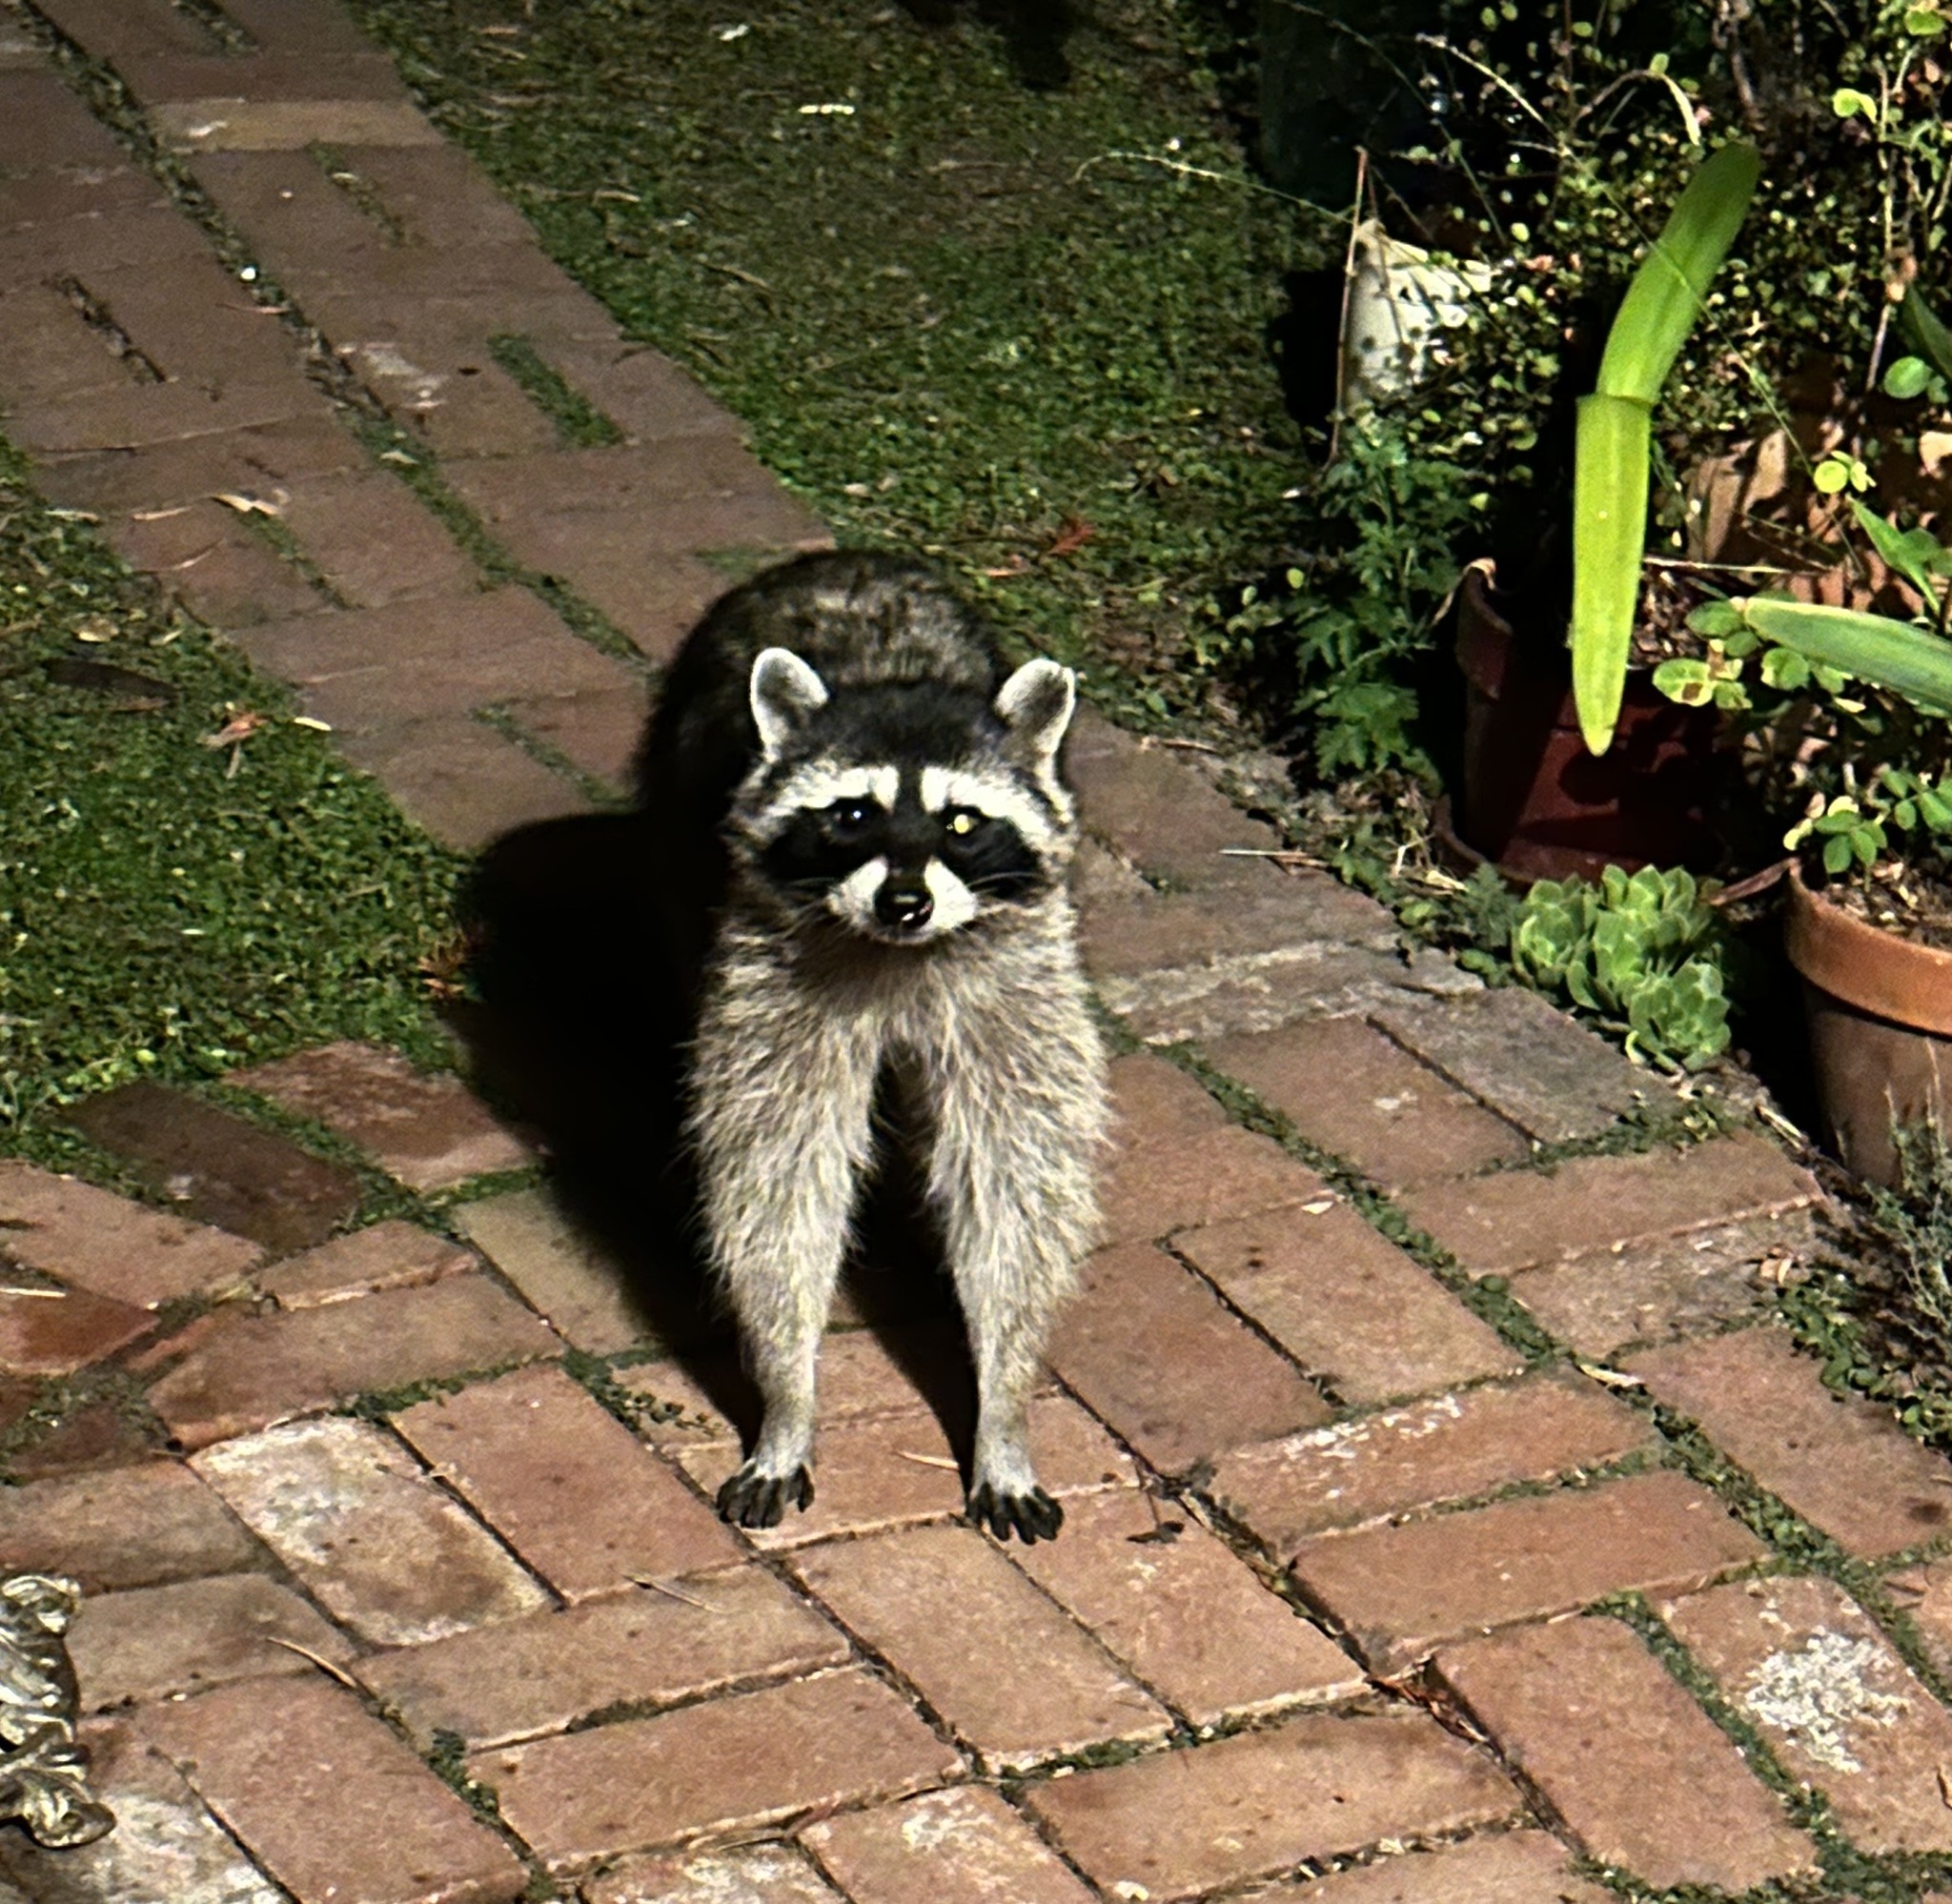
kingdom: Animalia
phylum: Chordata
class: Mammalia
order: Carnivora
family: Procyonidae
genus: Procyon
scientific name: Procyon lotor
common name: Raccoon
